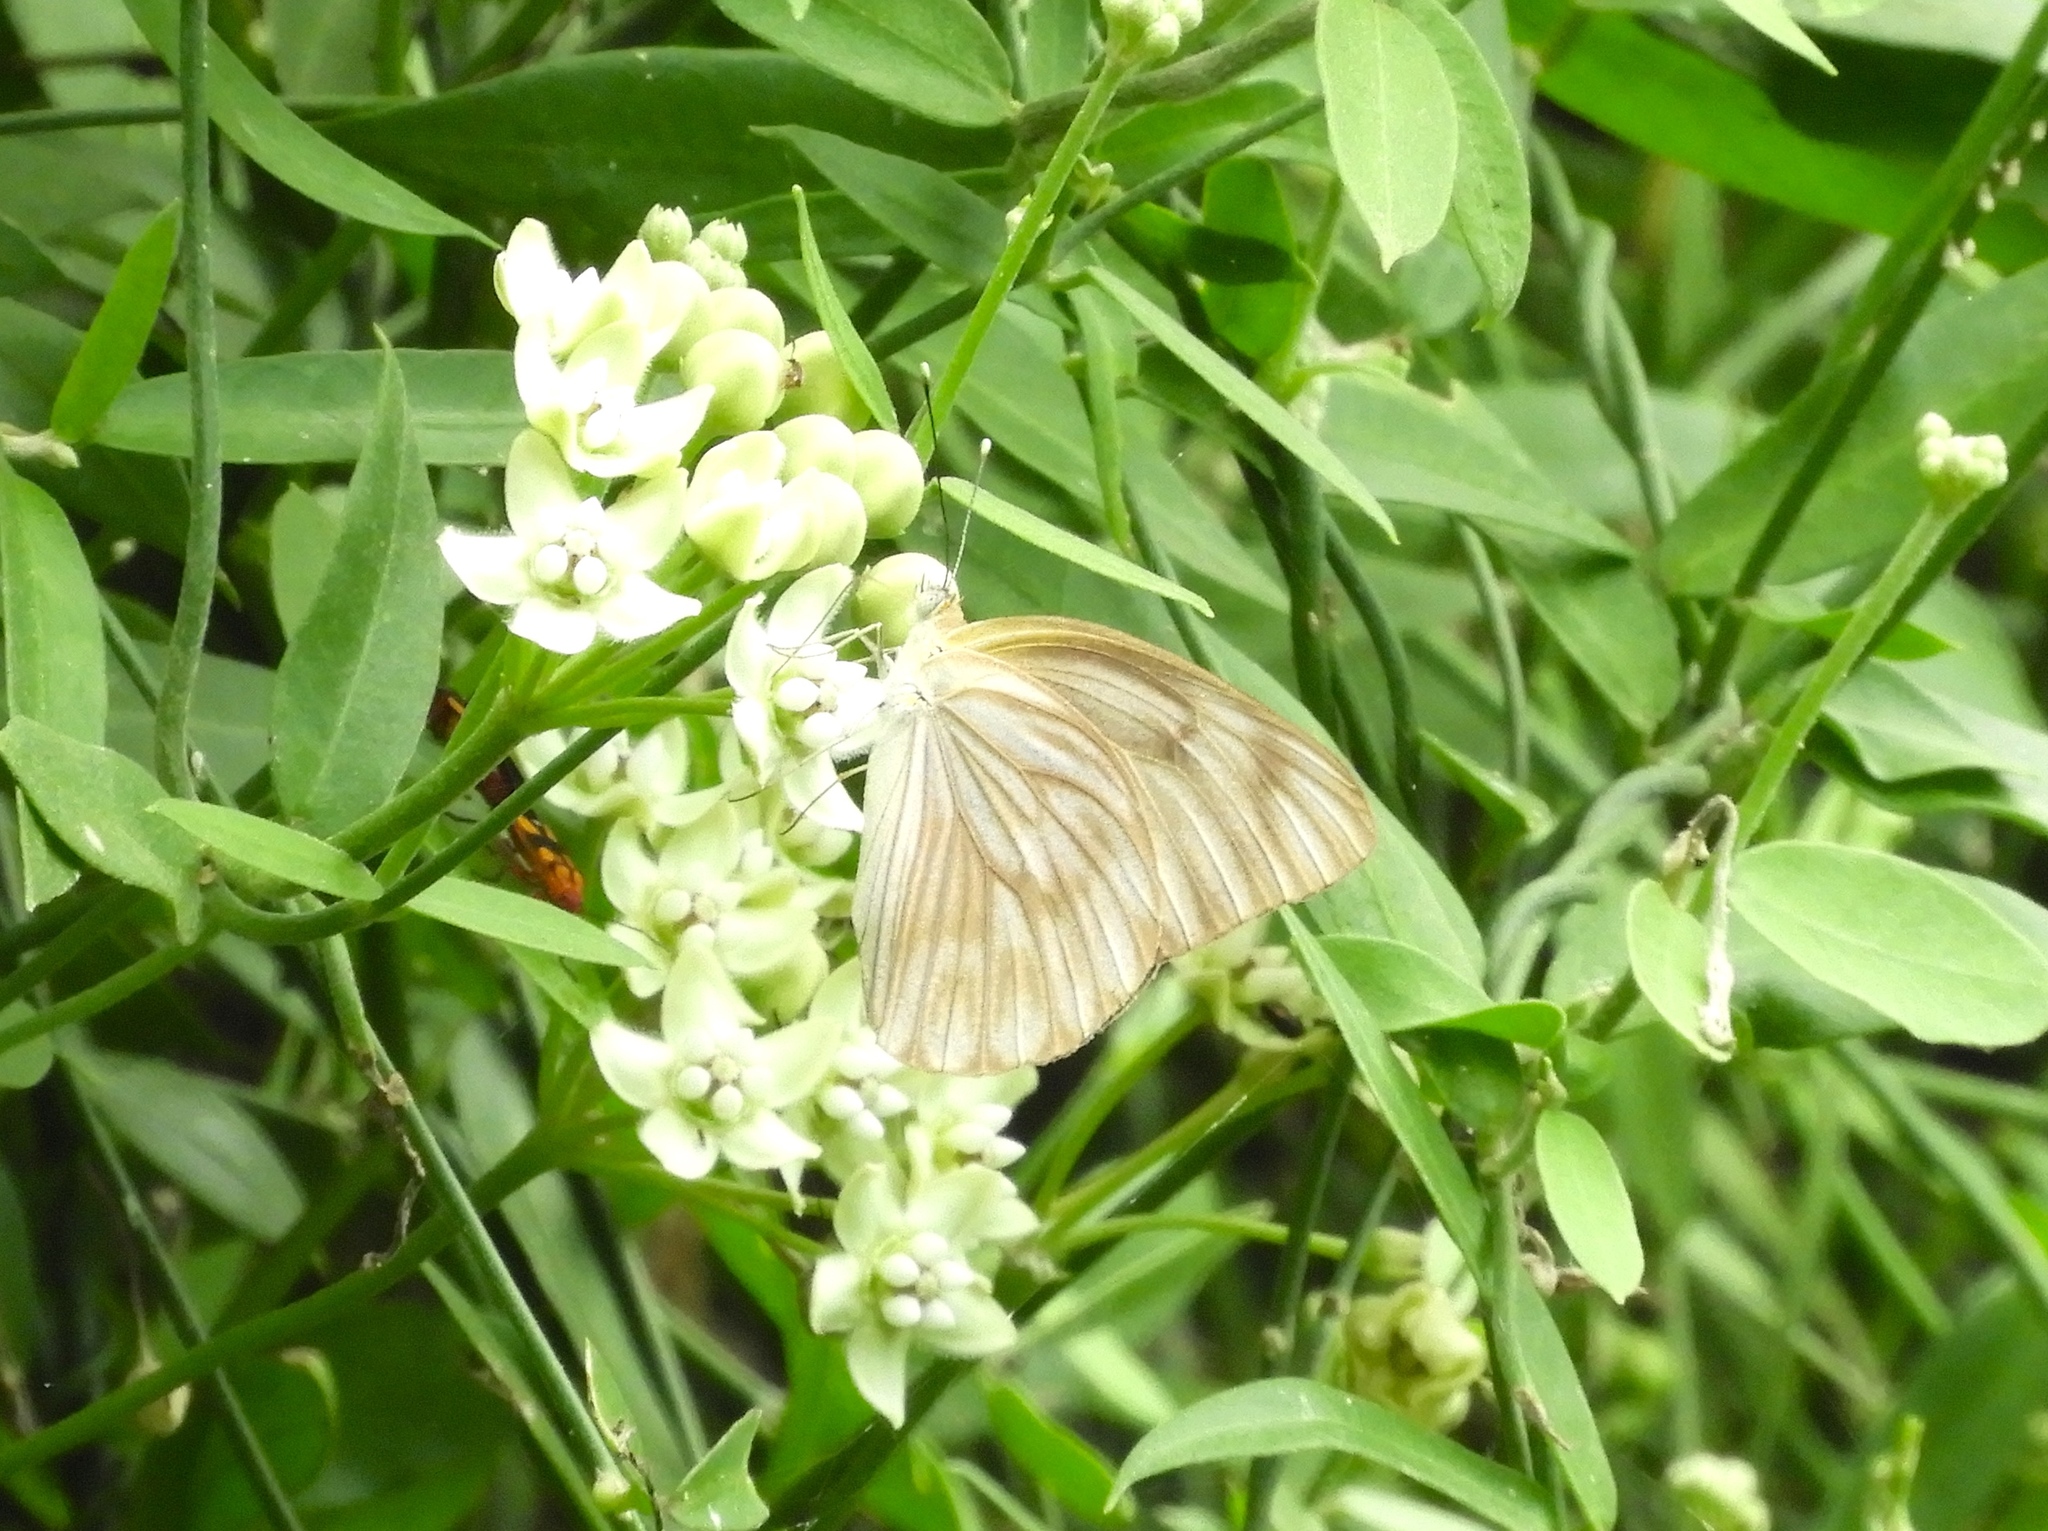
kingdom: Animalia
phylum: Arthropoda
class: Insecta
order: Lepidoptera
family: Pieridae
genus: Ascia
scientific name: Ascia monuste
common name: Great southern white
